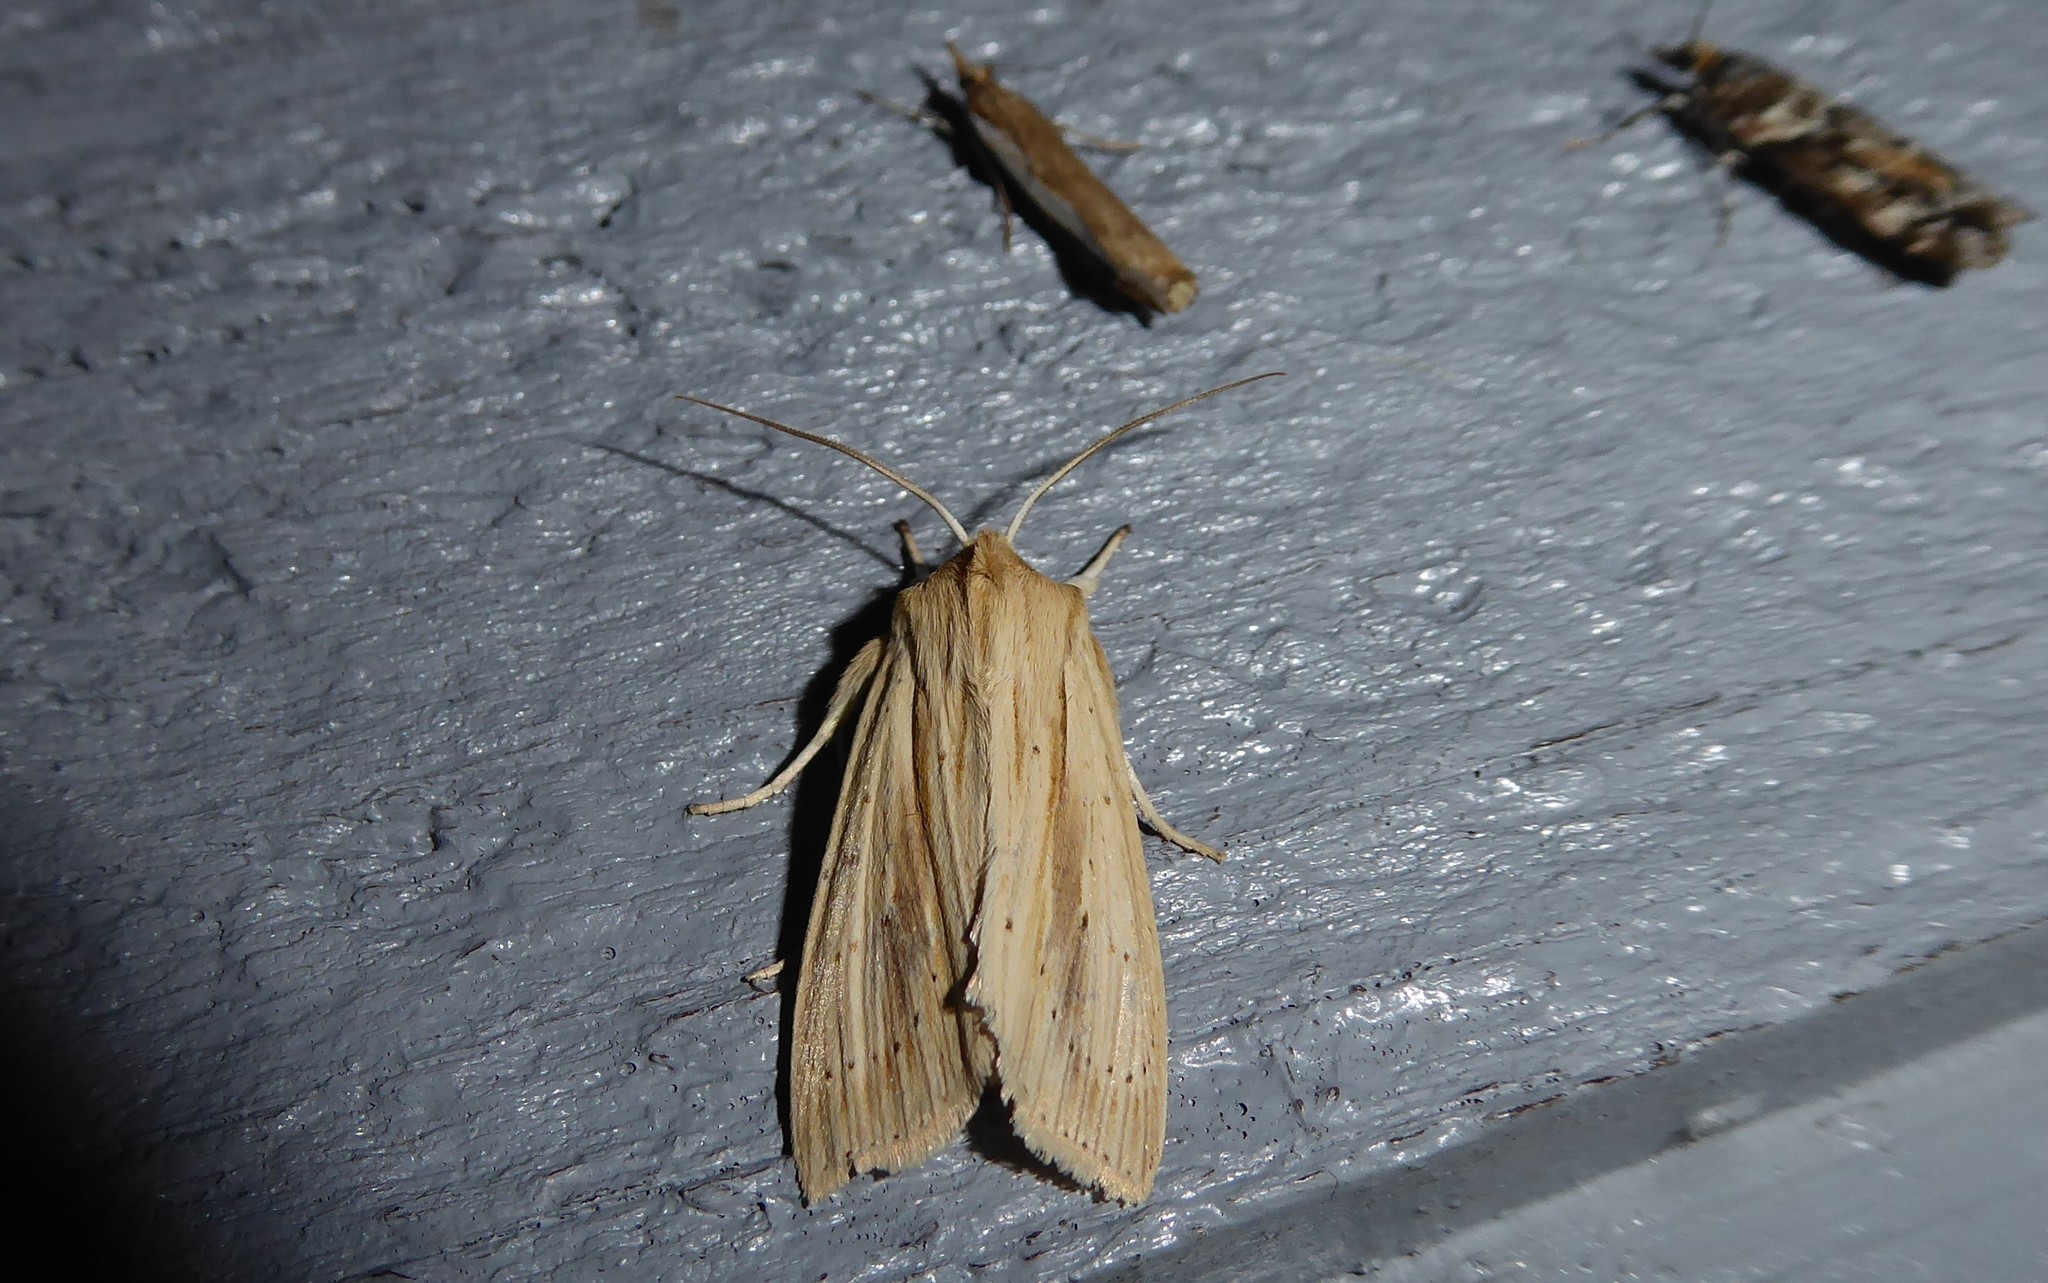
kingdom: Animalia
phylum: Arthropoda
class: Insecta
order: Lepidoptera
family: Noctuidae
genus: Ichneutica
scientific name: Ichneutica semivittata
